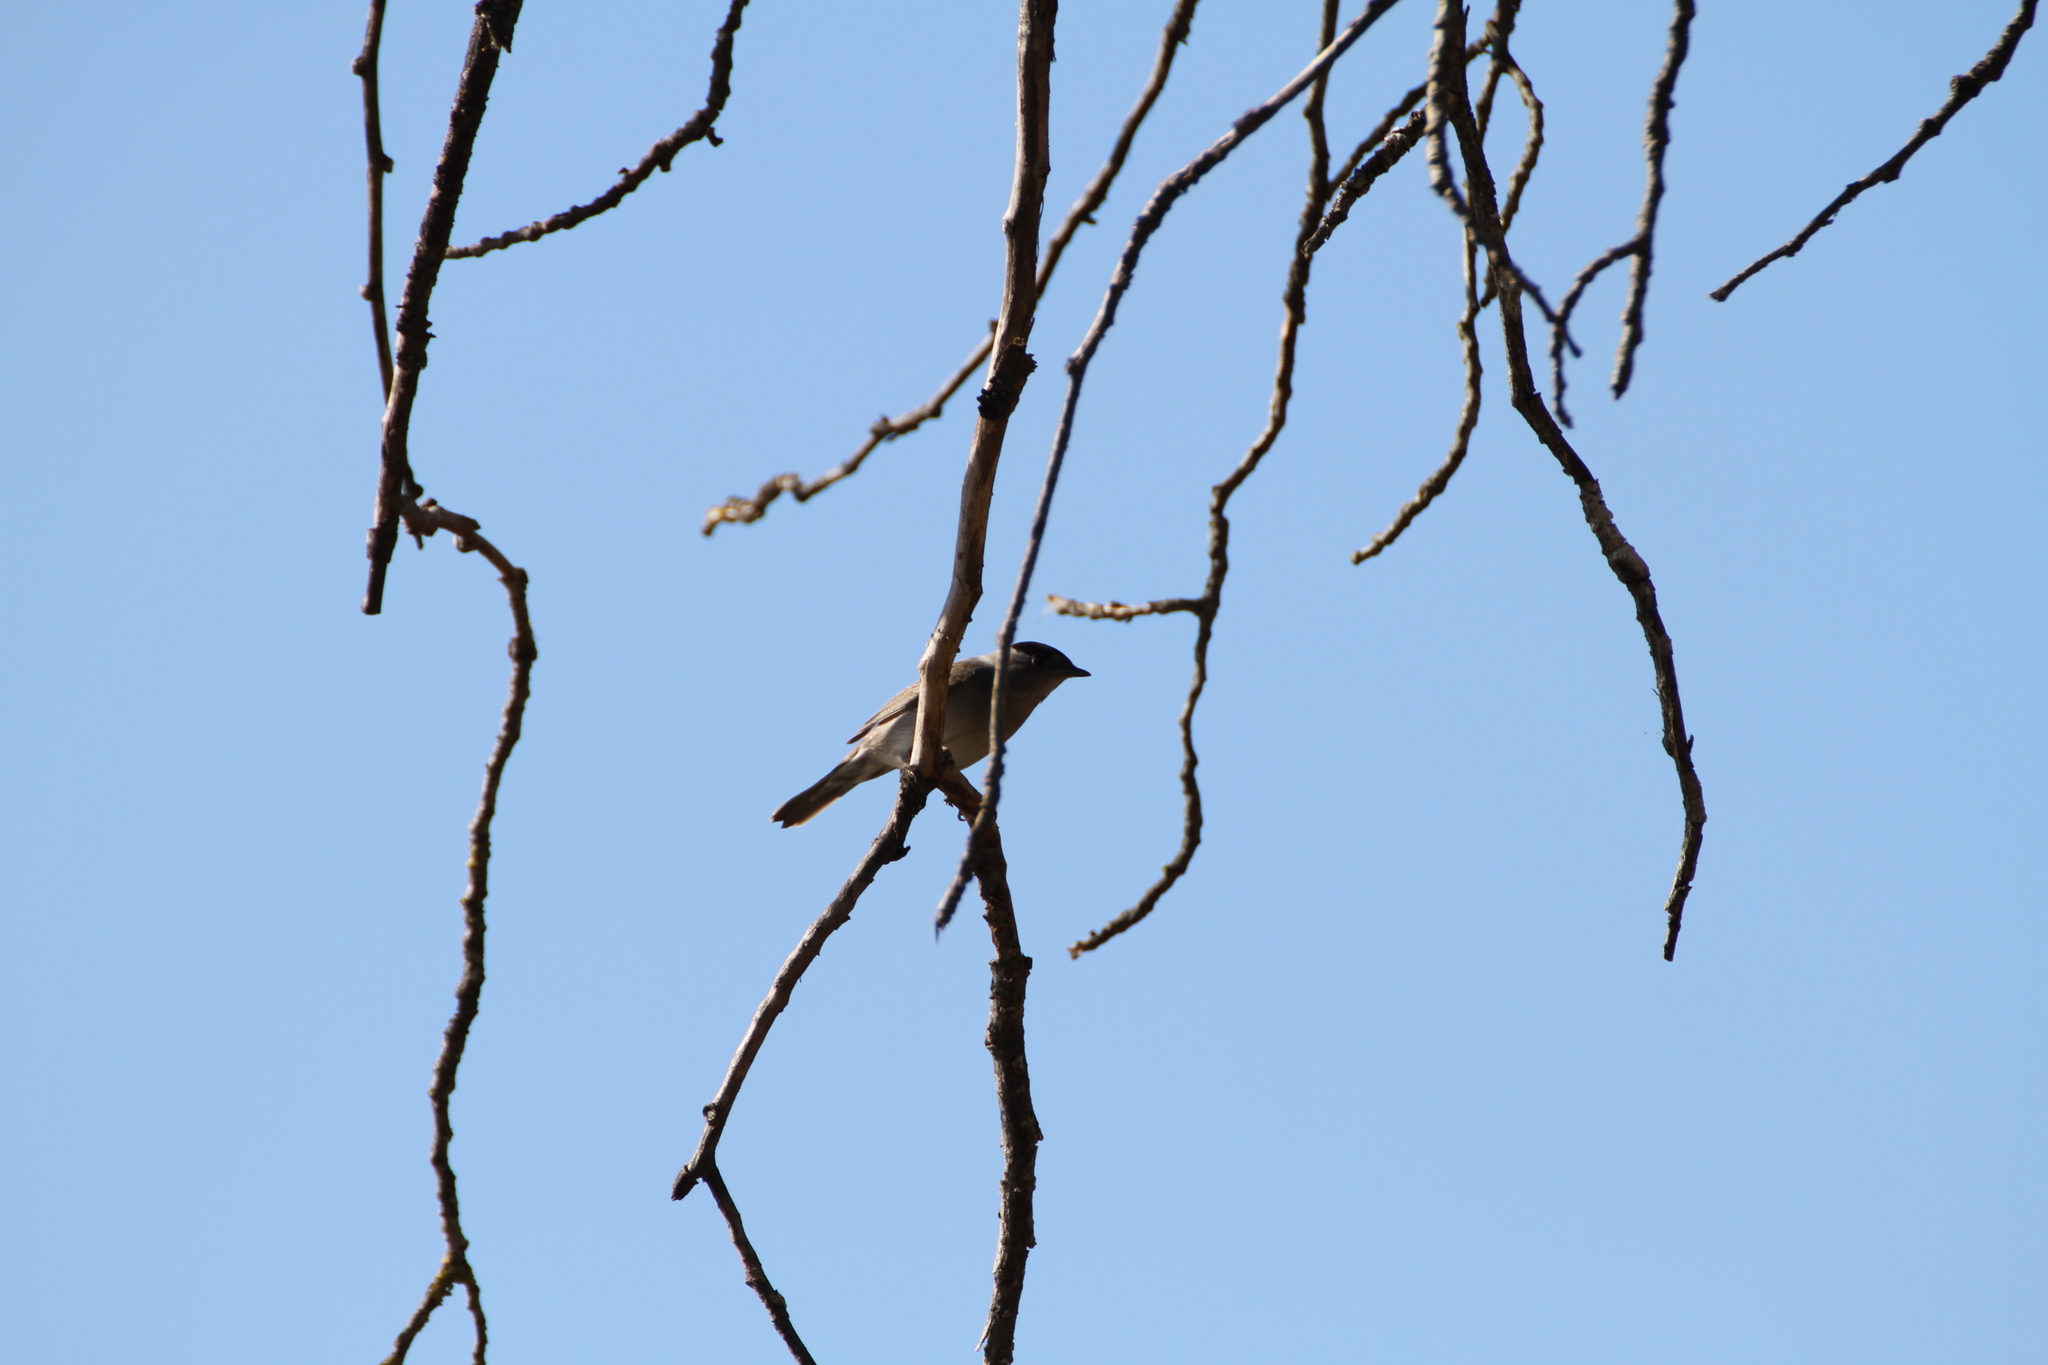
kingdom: Animalia
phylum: Chordata
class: Aves
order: Passeriformes
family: Sylviidae
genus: Sylvia
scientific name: Sylvia atricapilla
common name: Eurasian blackcap
